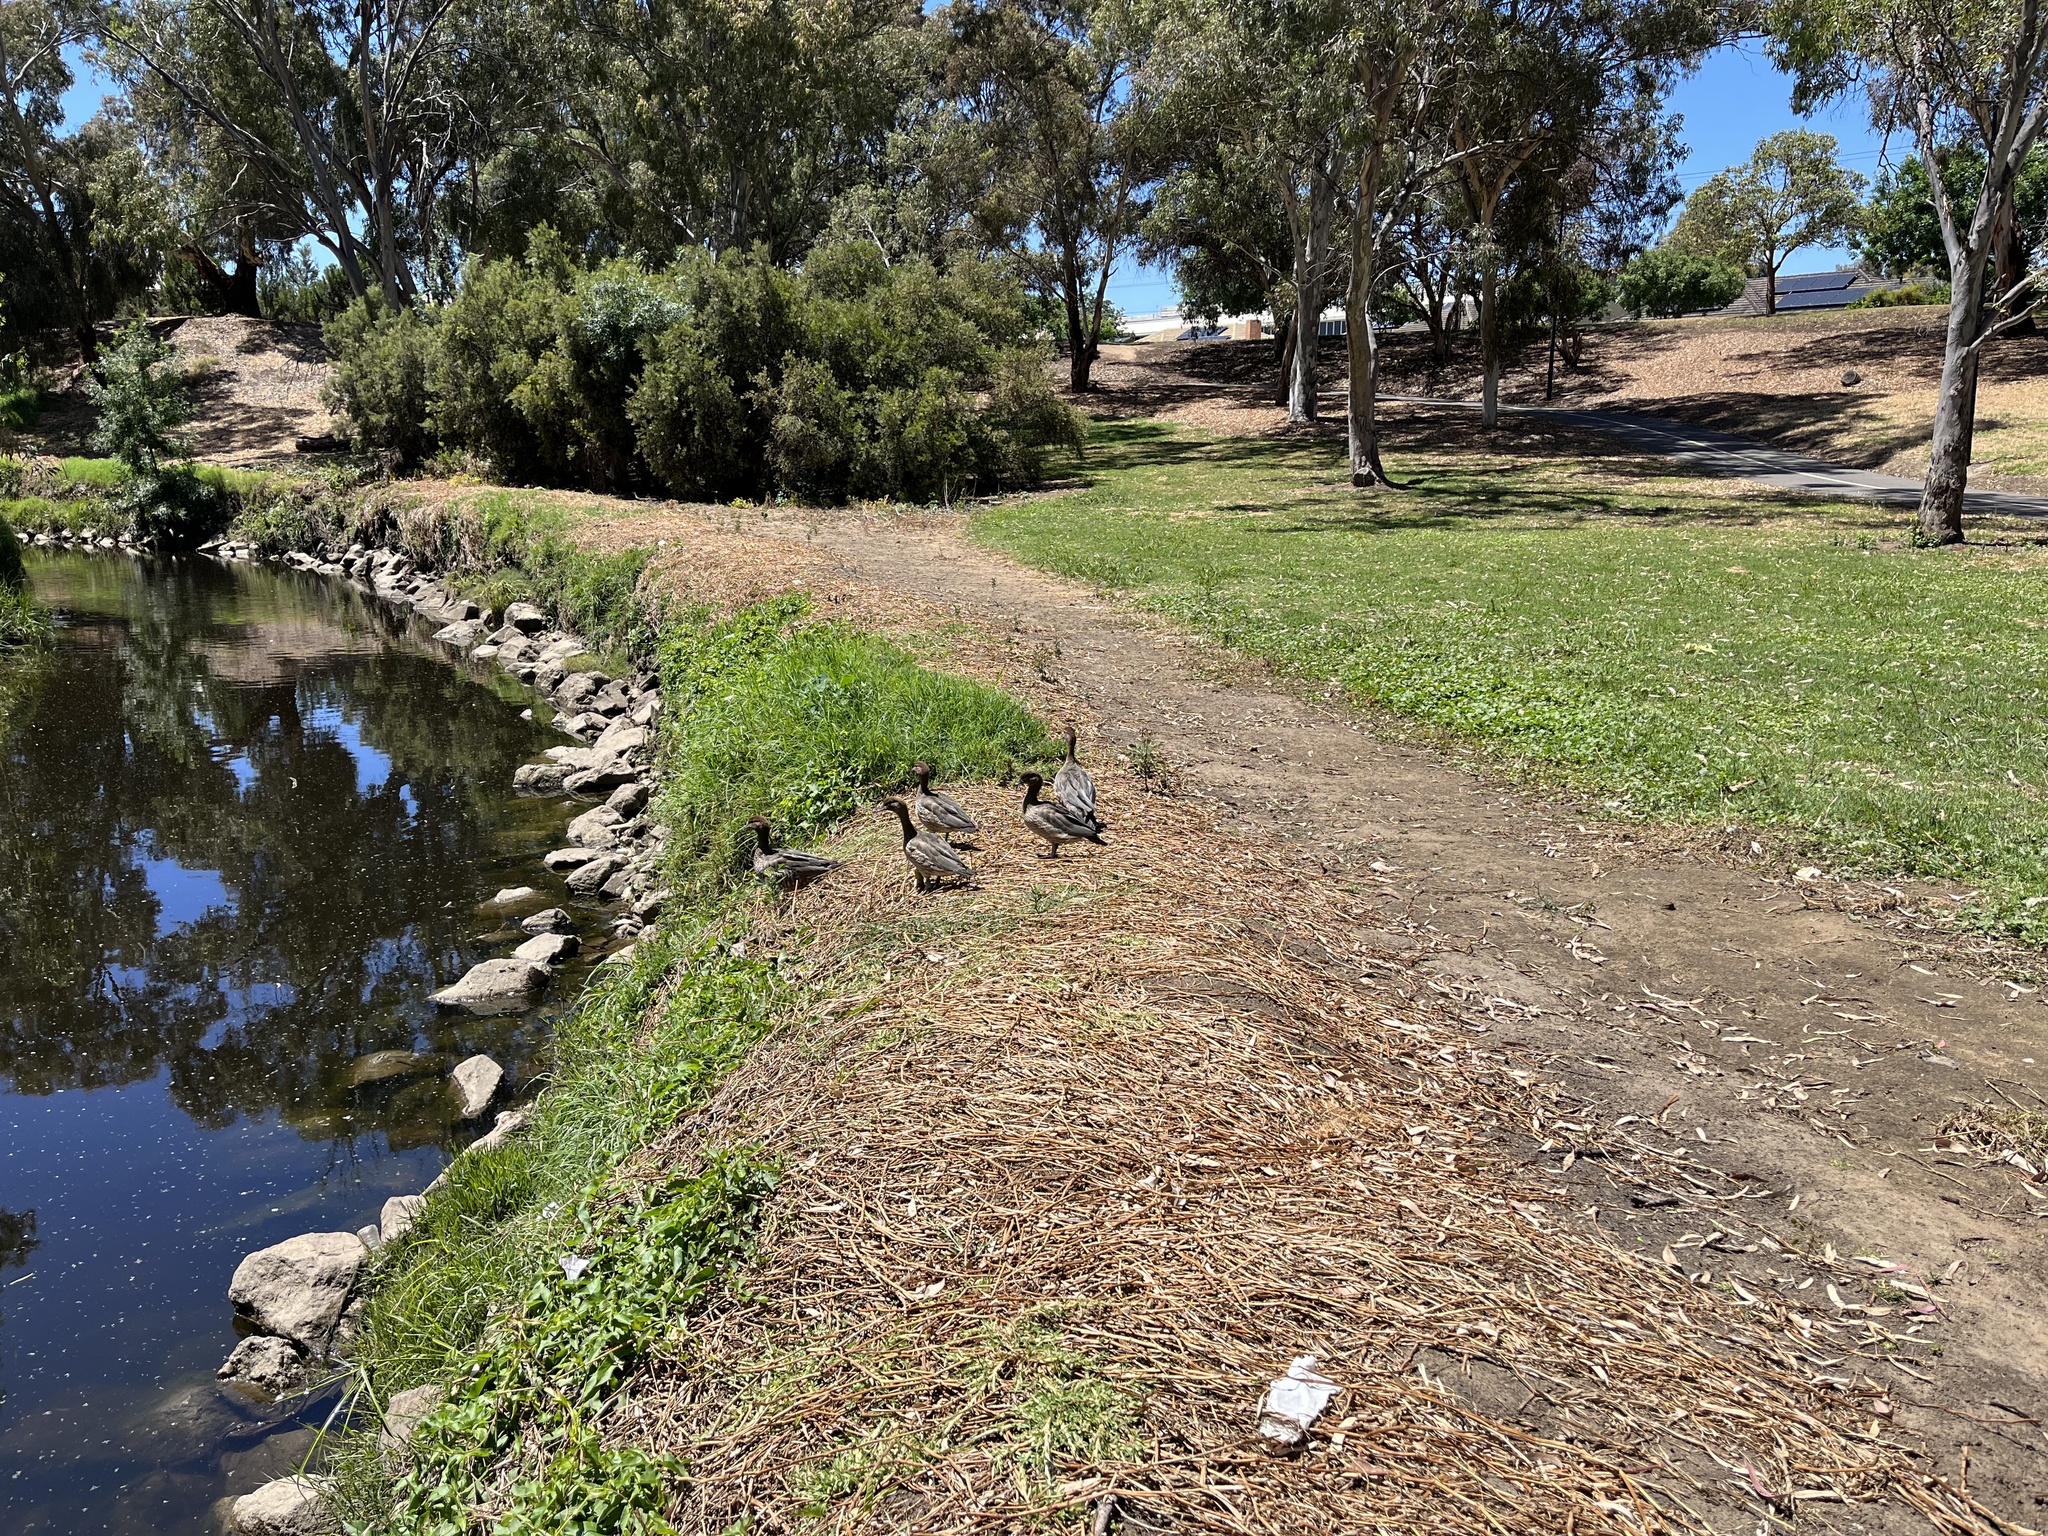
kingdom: Animalia
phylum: Chordata
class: Aves
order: Anseriformes
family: Anatidae
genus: Chenonetta
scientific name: Chenonetta jubata
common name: Maned duck
